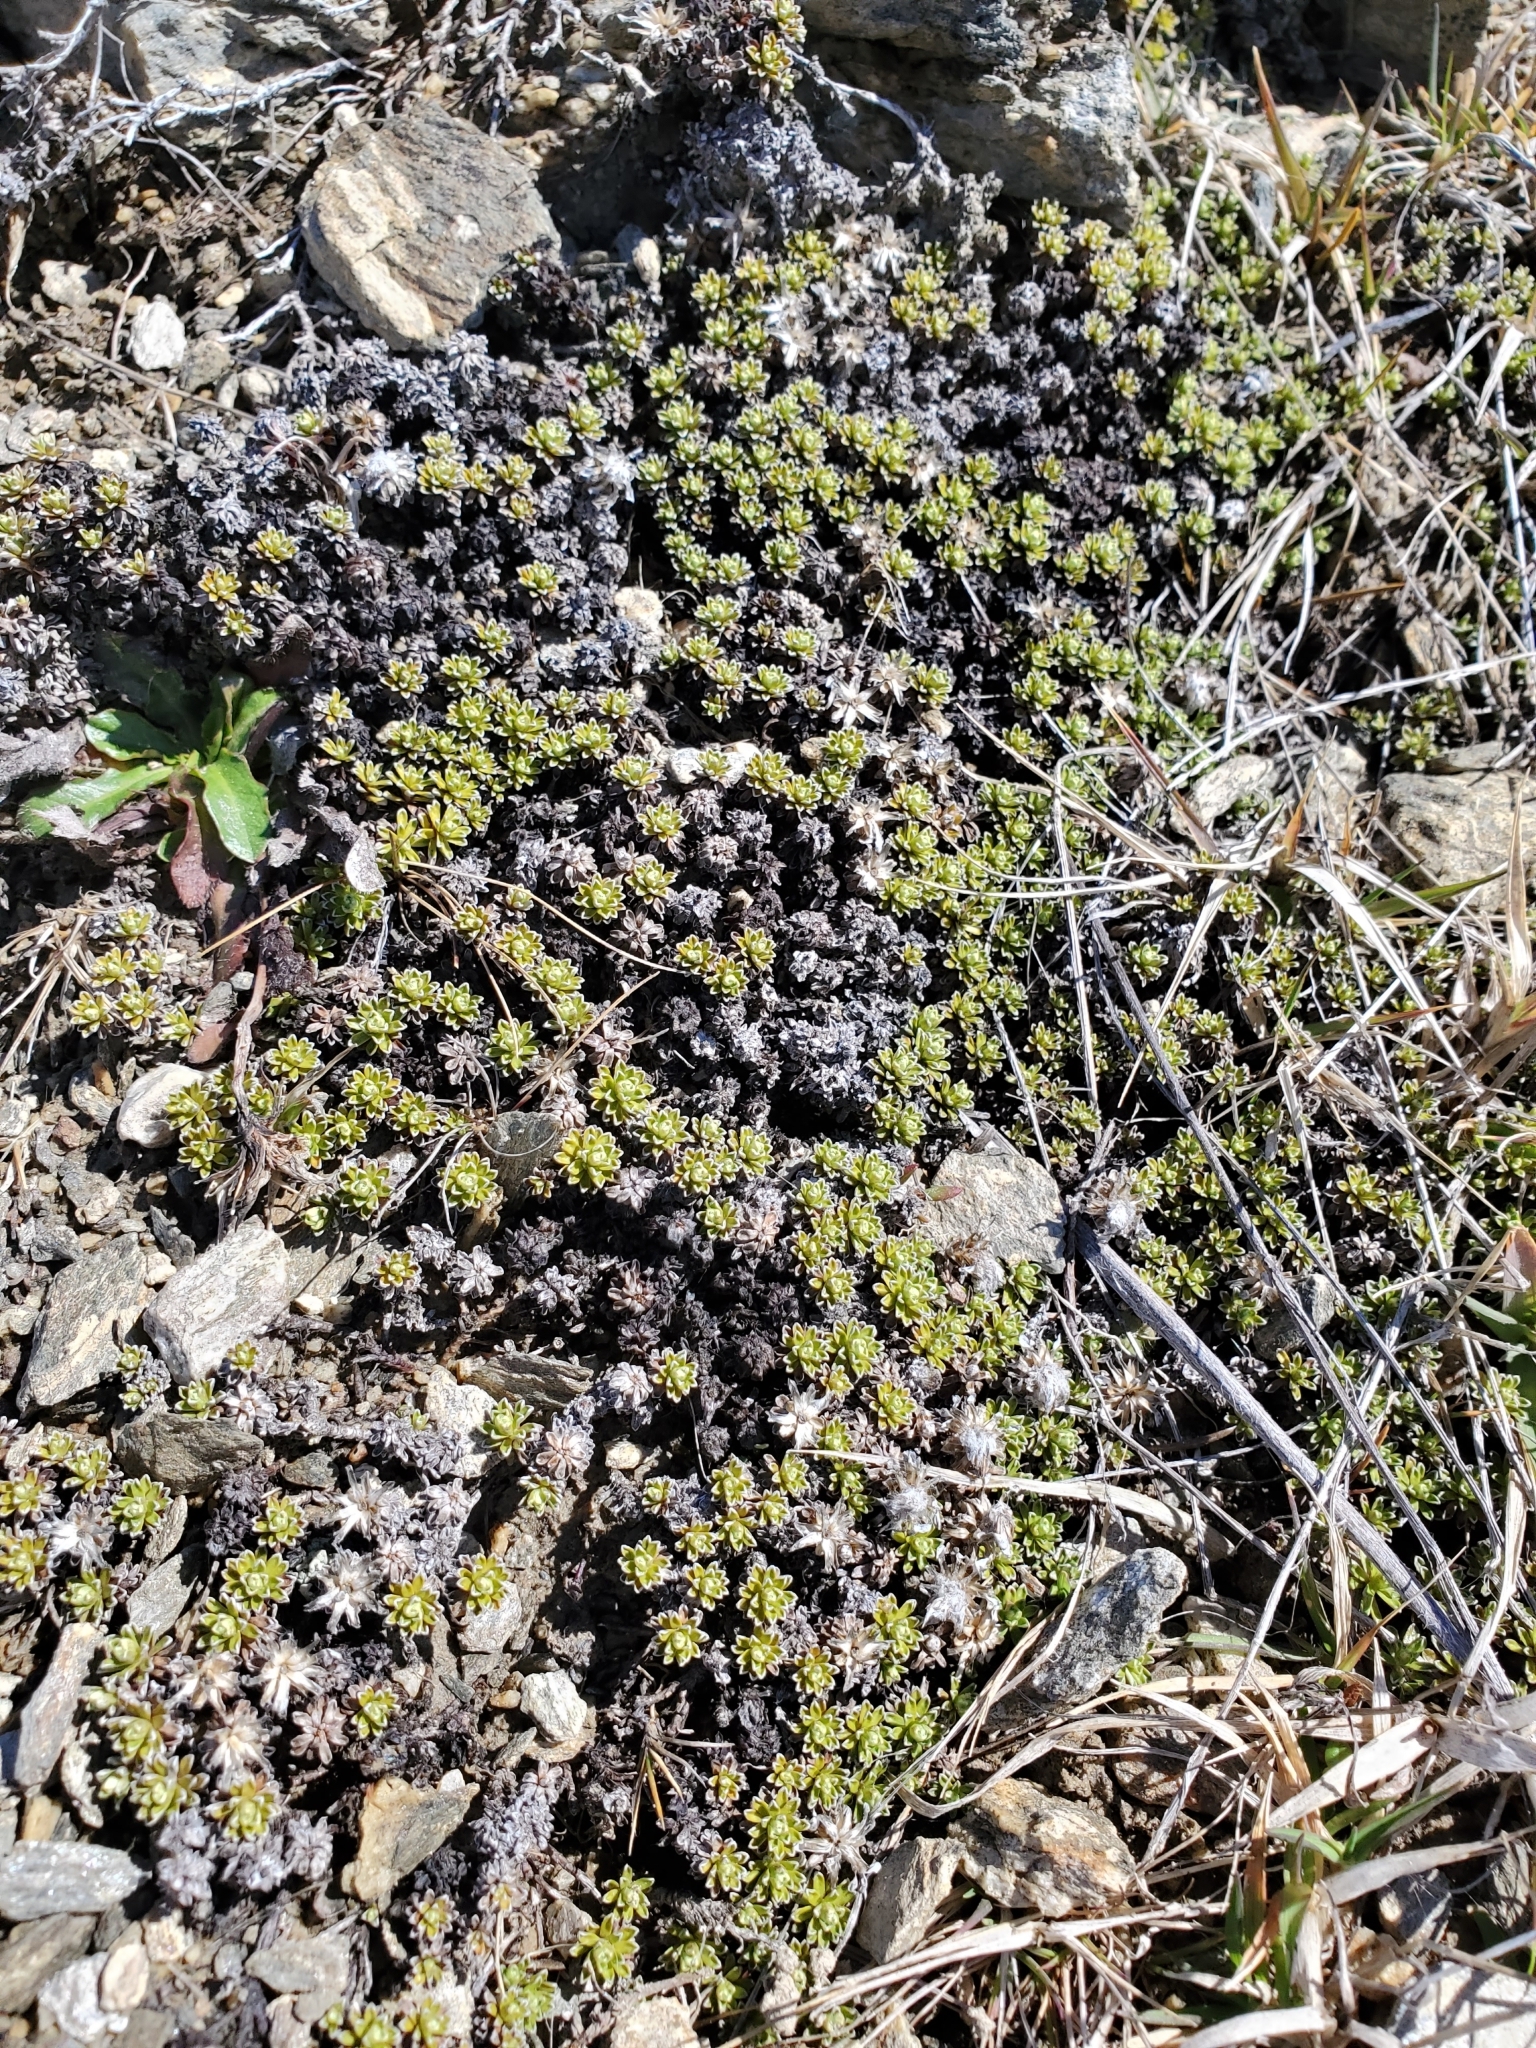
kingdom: Plantae
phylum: Tracheophyta
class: Magnoliopsida
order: Asterales
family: Asteraceae
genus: Raoulia
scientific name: Raoulia subsericea
